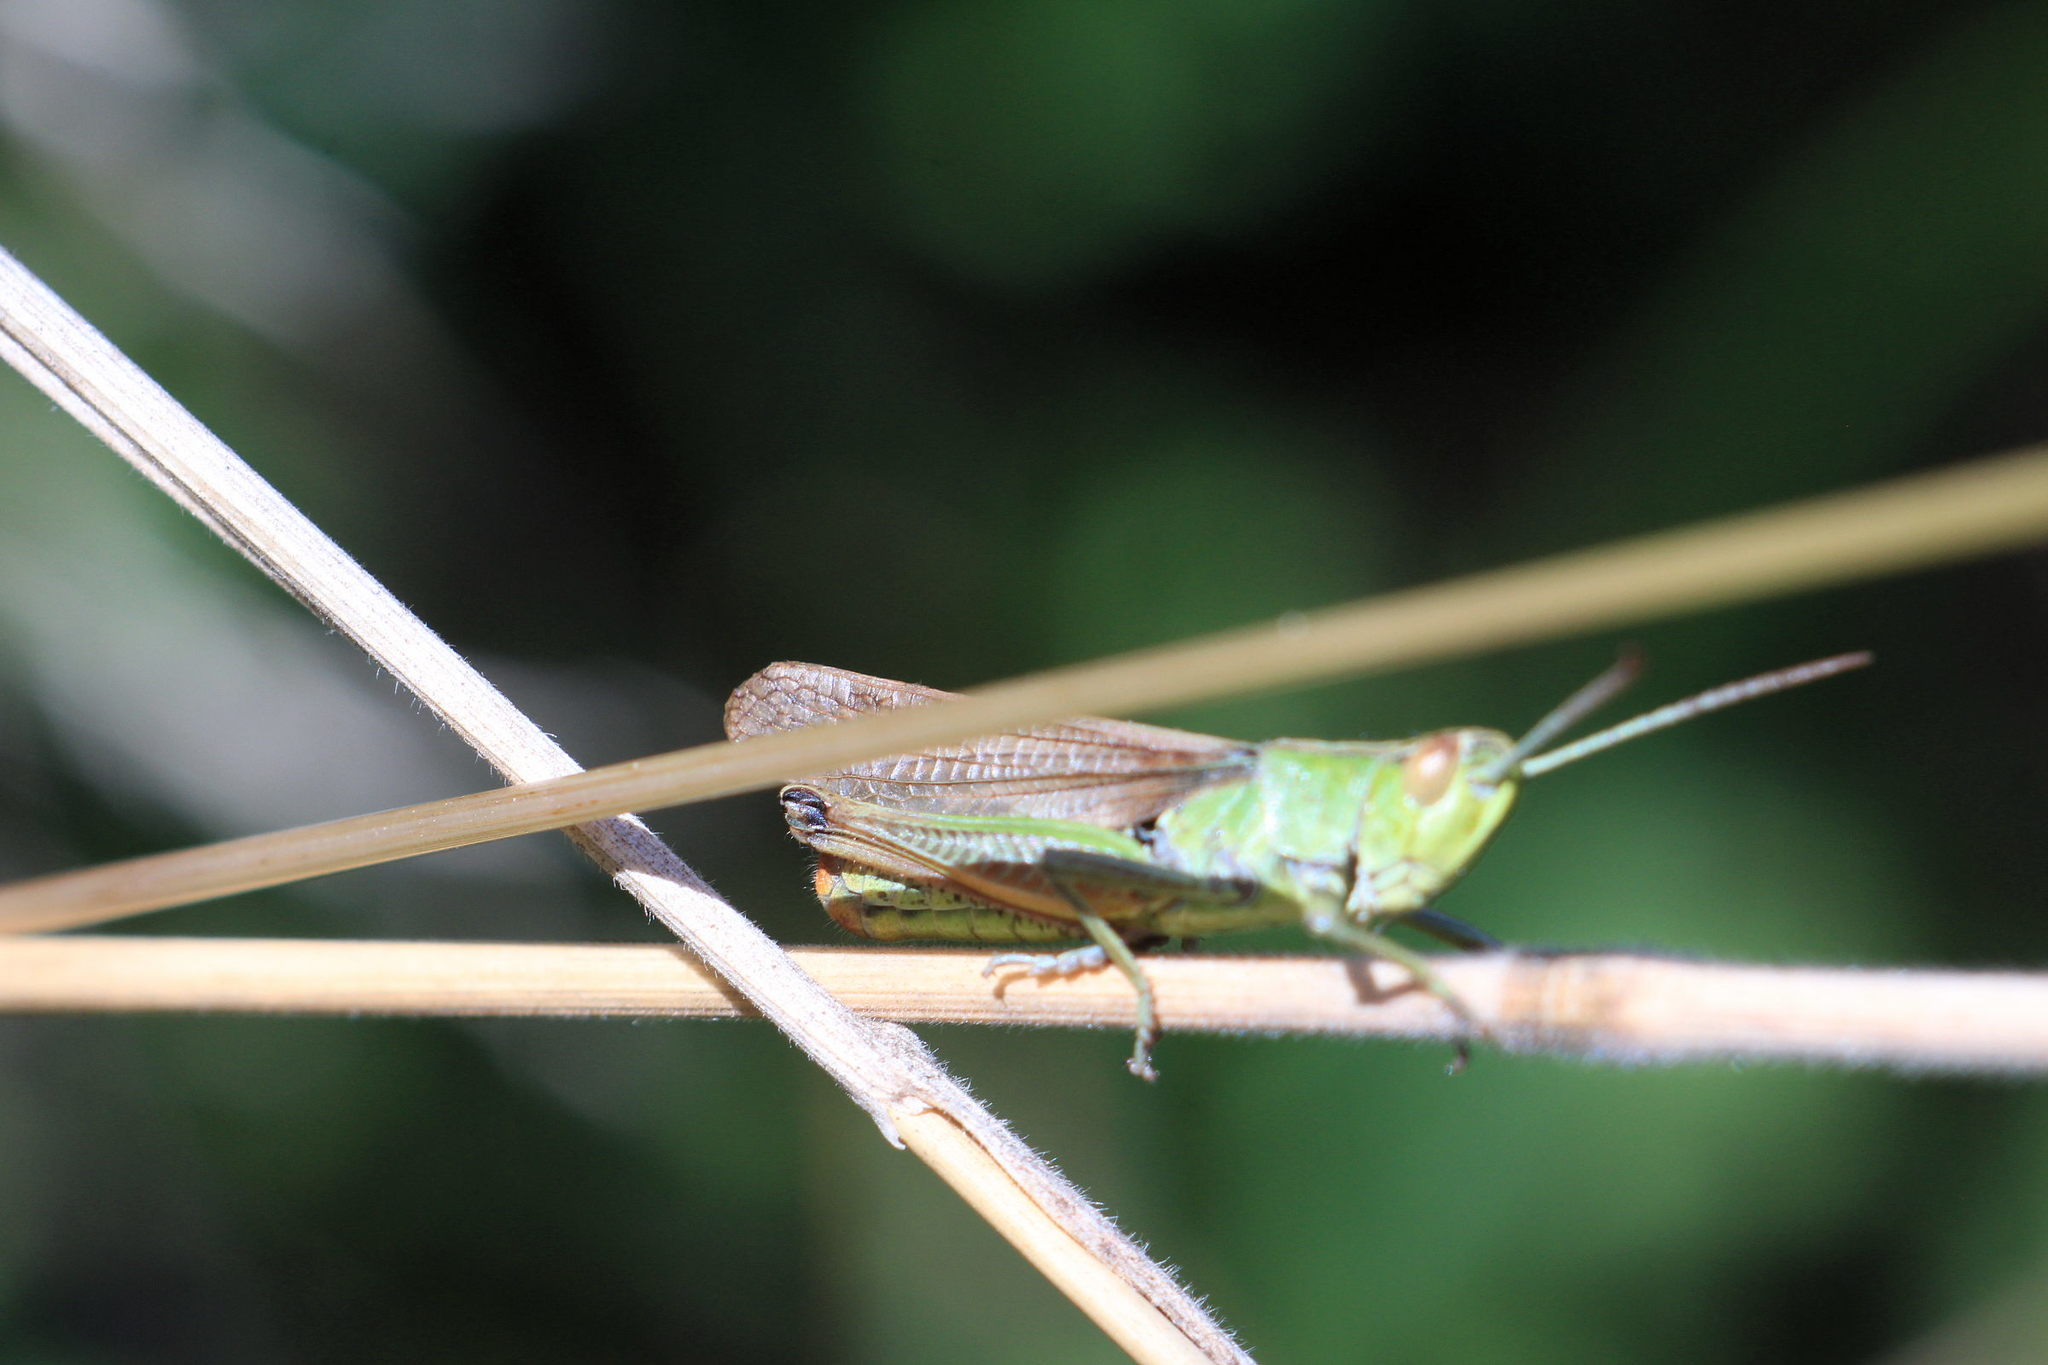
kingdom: Animalia
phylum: Arthropoda
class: Insecta
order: Orthoptera
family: Acrididae
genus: Pseudochorthippus
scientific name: Pseudochorthippus parallelus
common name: Meadow grasshopper
